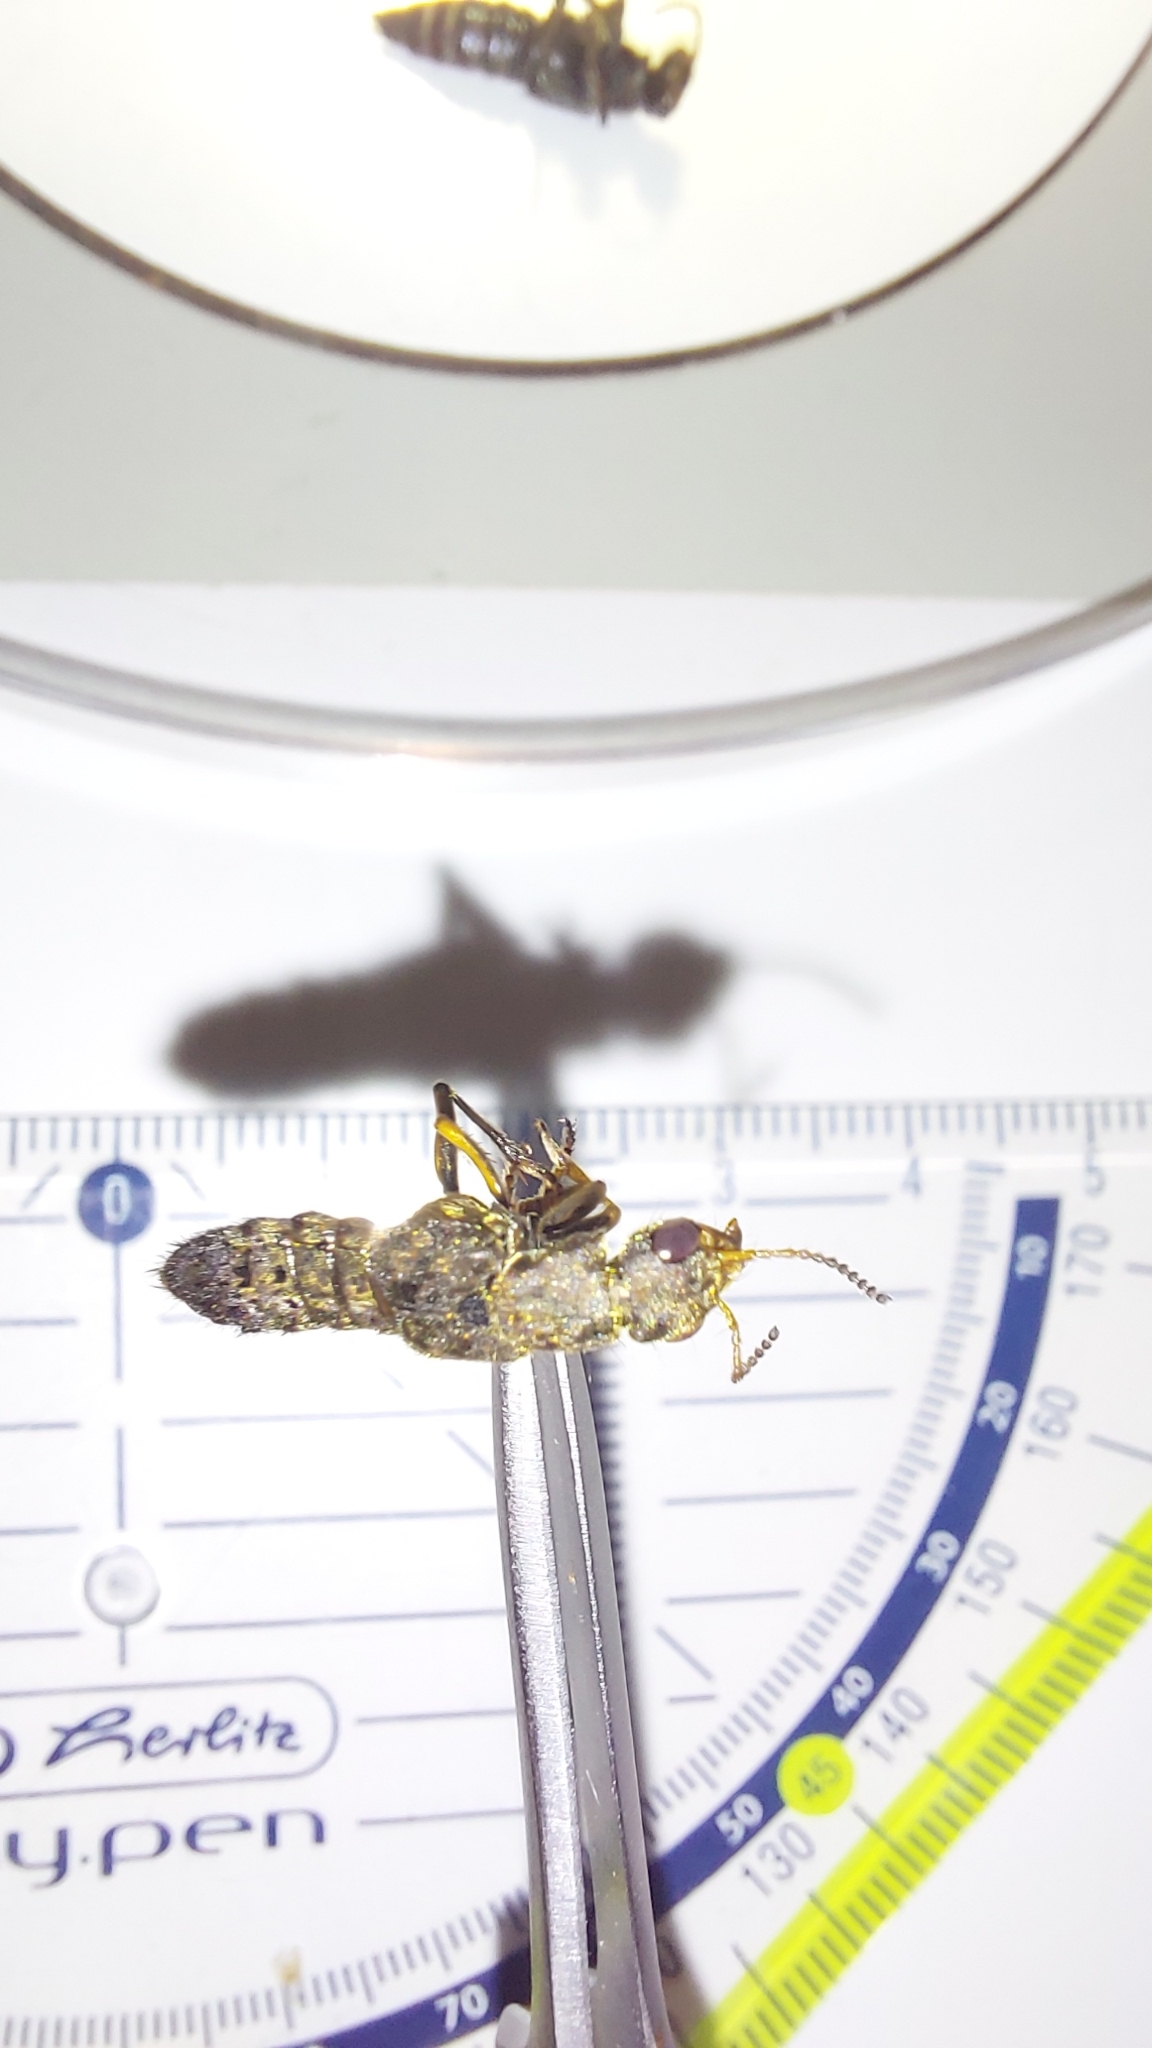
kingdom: Animalia
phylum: Arthropoda
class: Insecta
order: Coleoptera
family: Staphylinidae
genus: Ontholestes
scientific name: Ontholestes tessellatus
